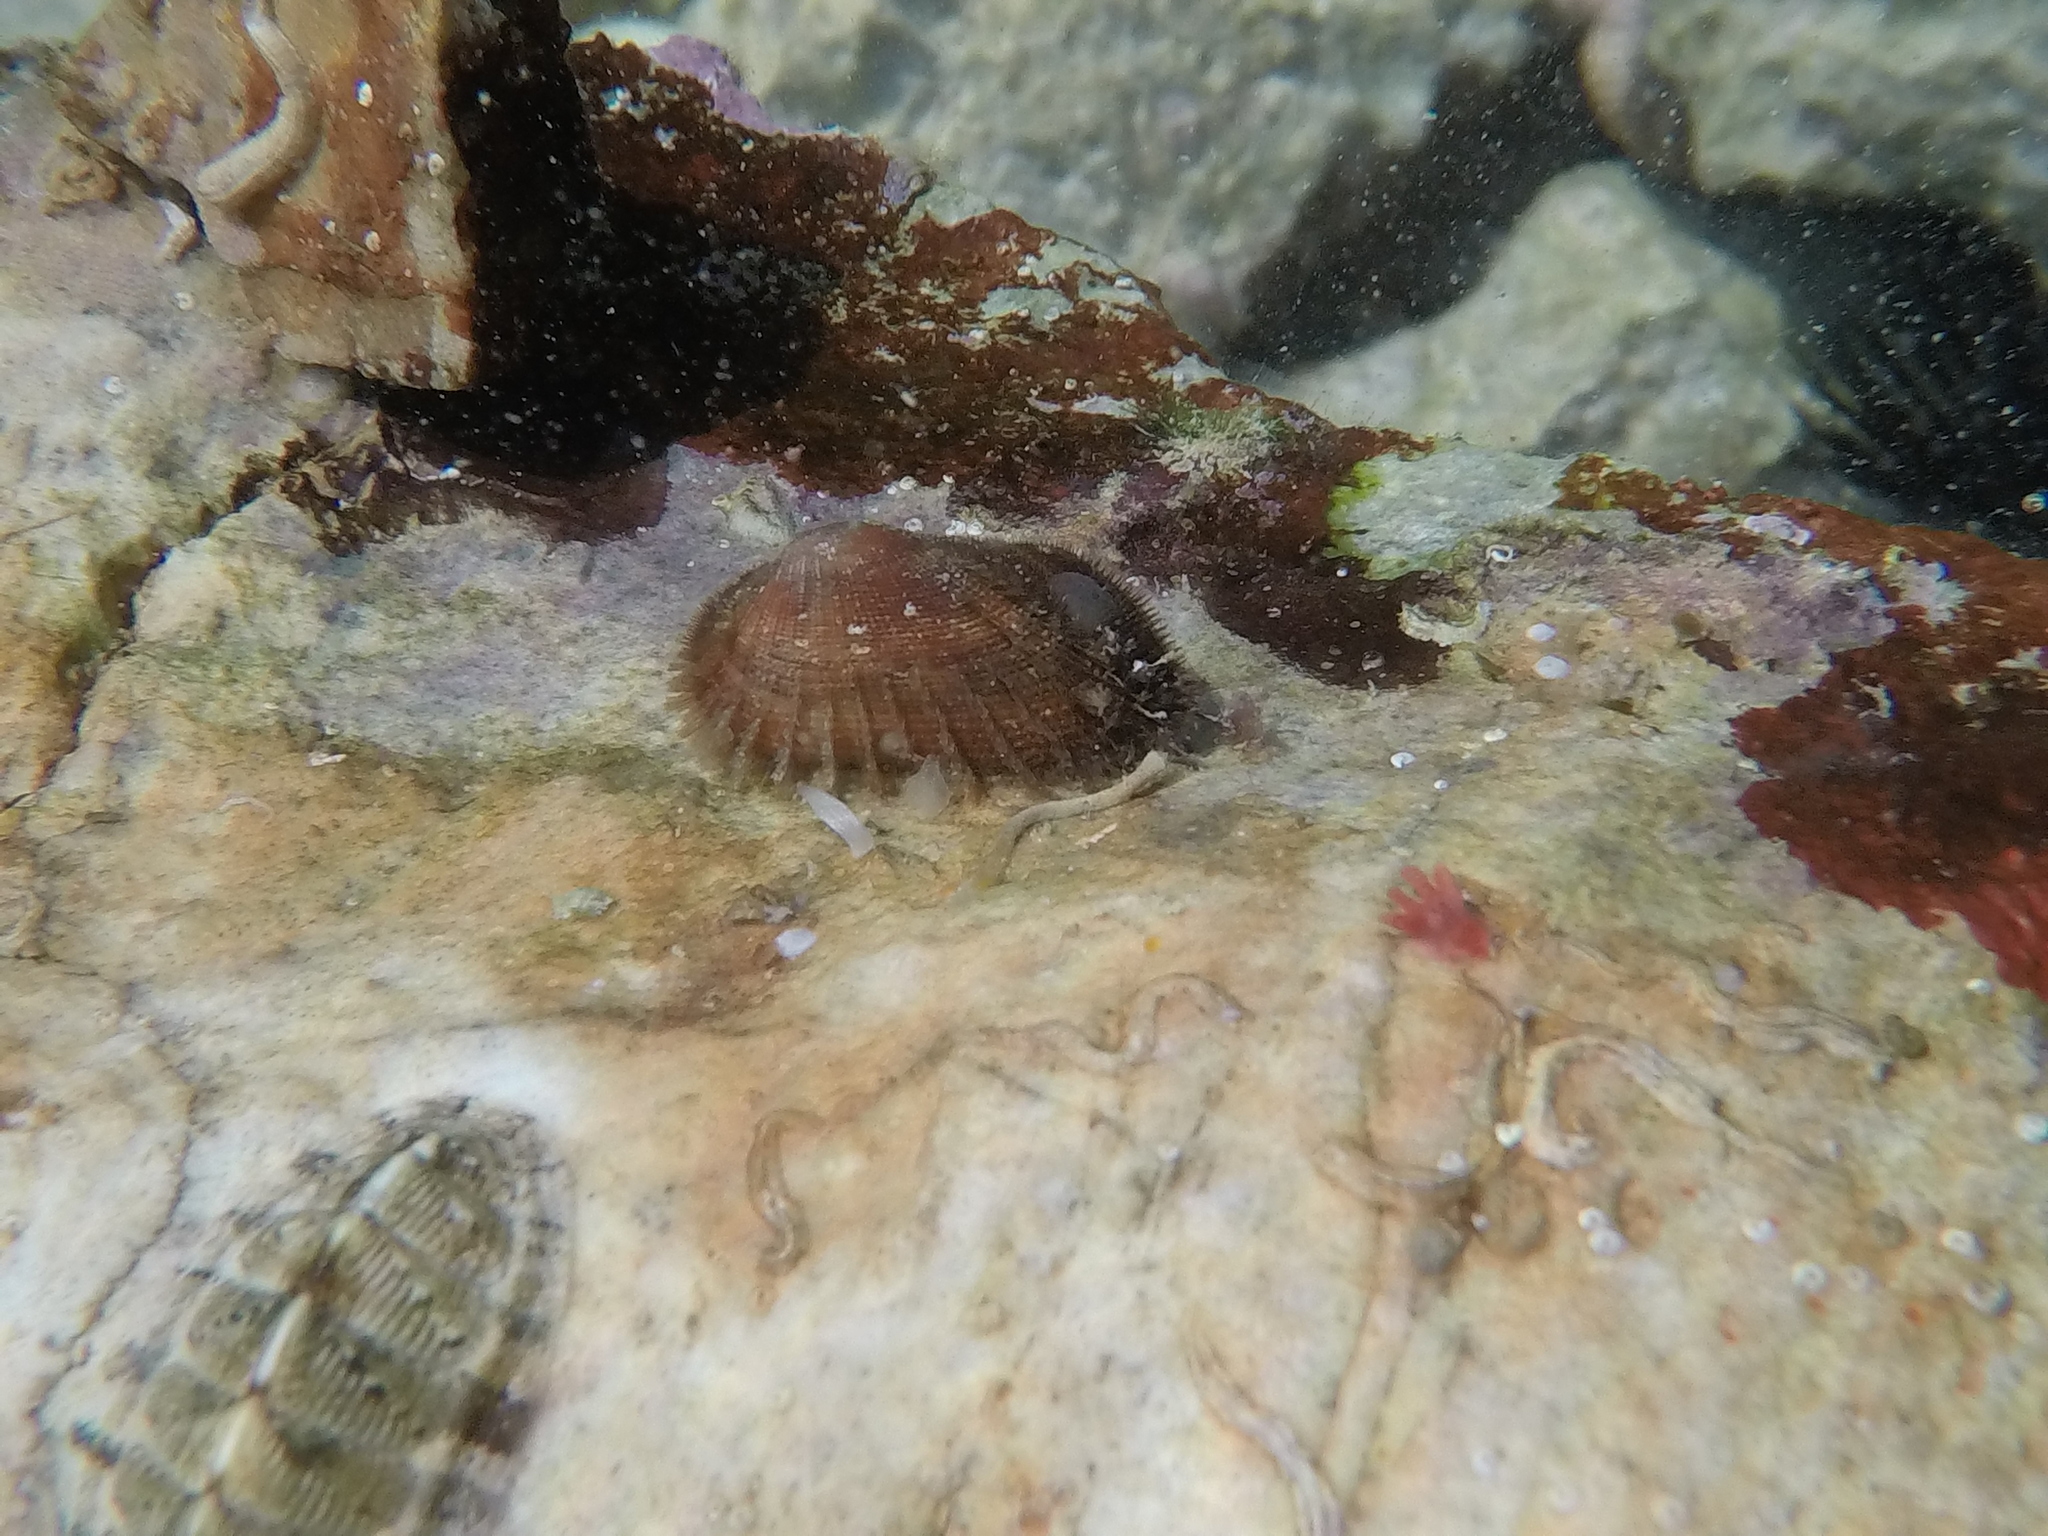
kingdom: Animalia
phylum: Mollusca
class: Bivalvia
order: Arcida
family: Arcidae
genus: Barbatia
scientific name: Barbatia barbata
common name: Bearded ark
